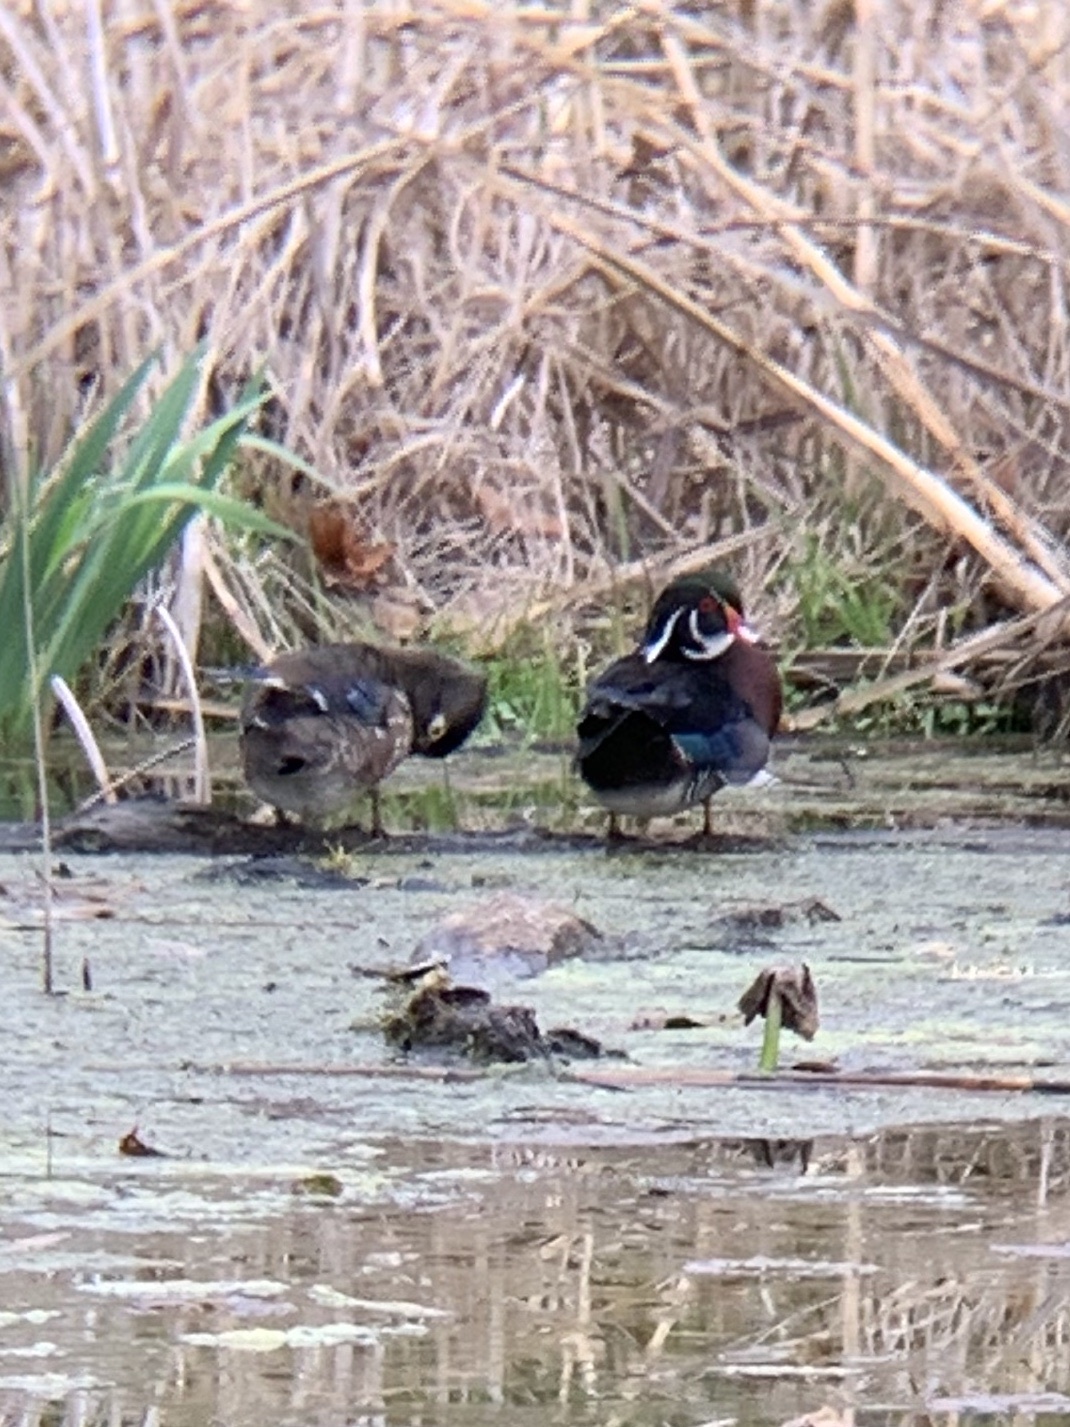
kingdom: Animalia
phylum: Chordata
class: Aves
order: Anseriformes
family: Anatidae
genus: Aix
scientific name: Aix sponsa
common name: Wood duck
